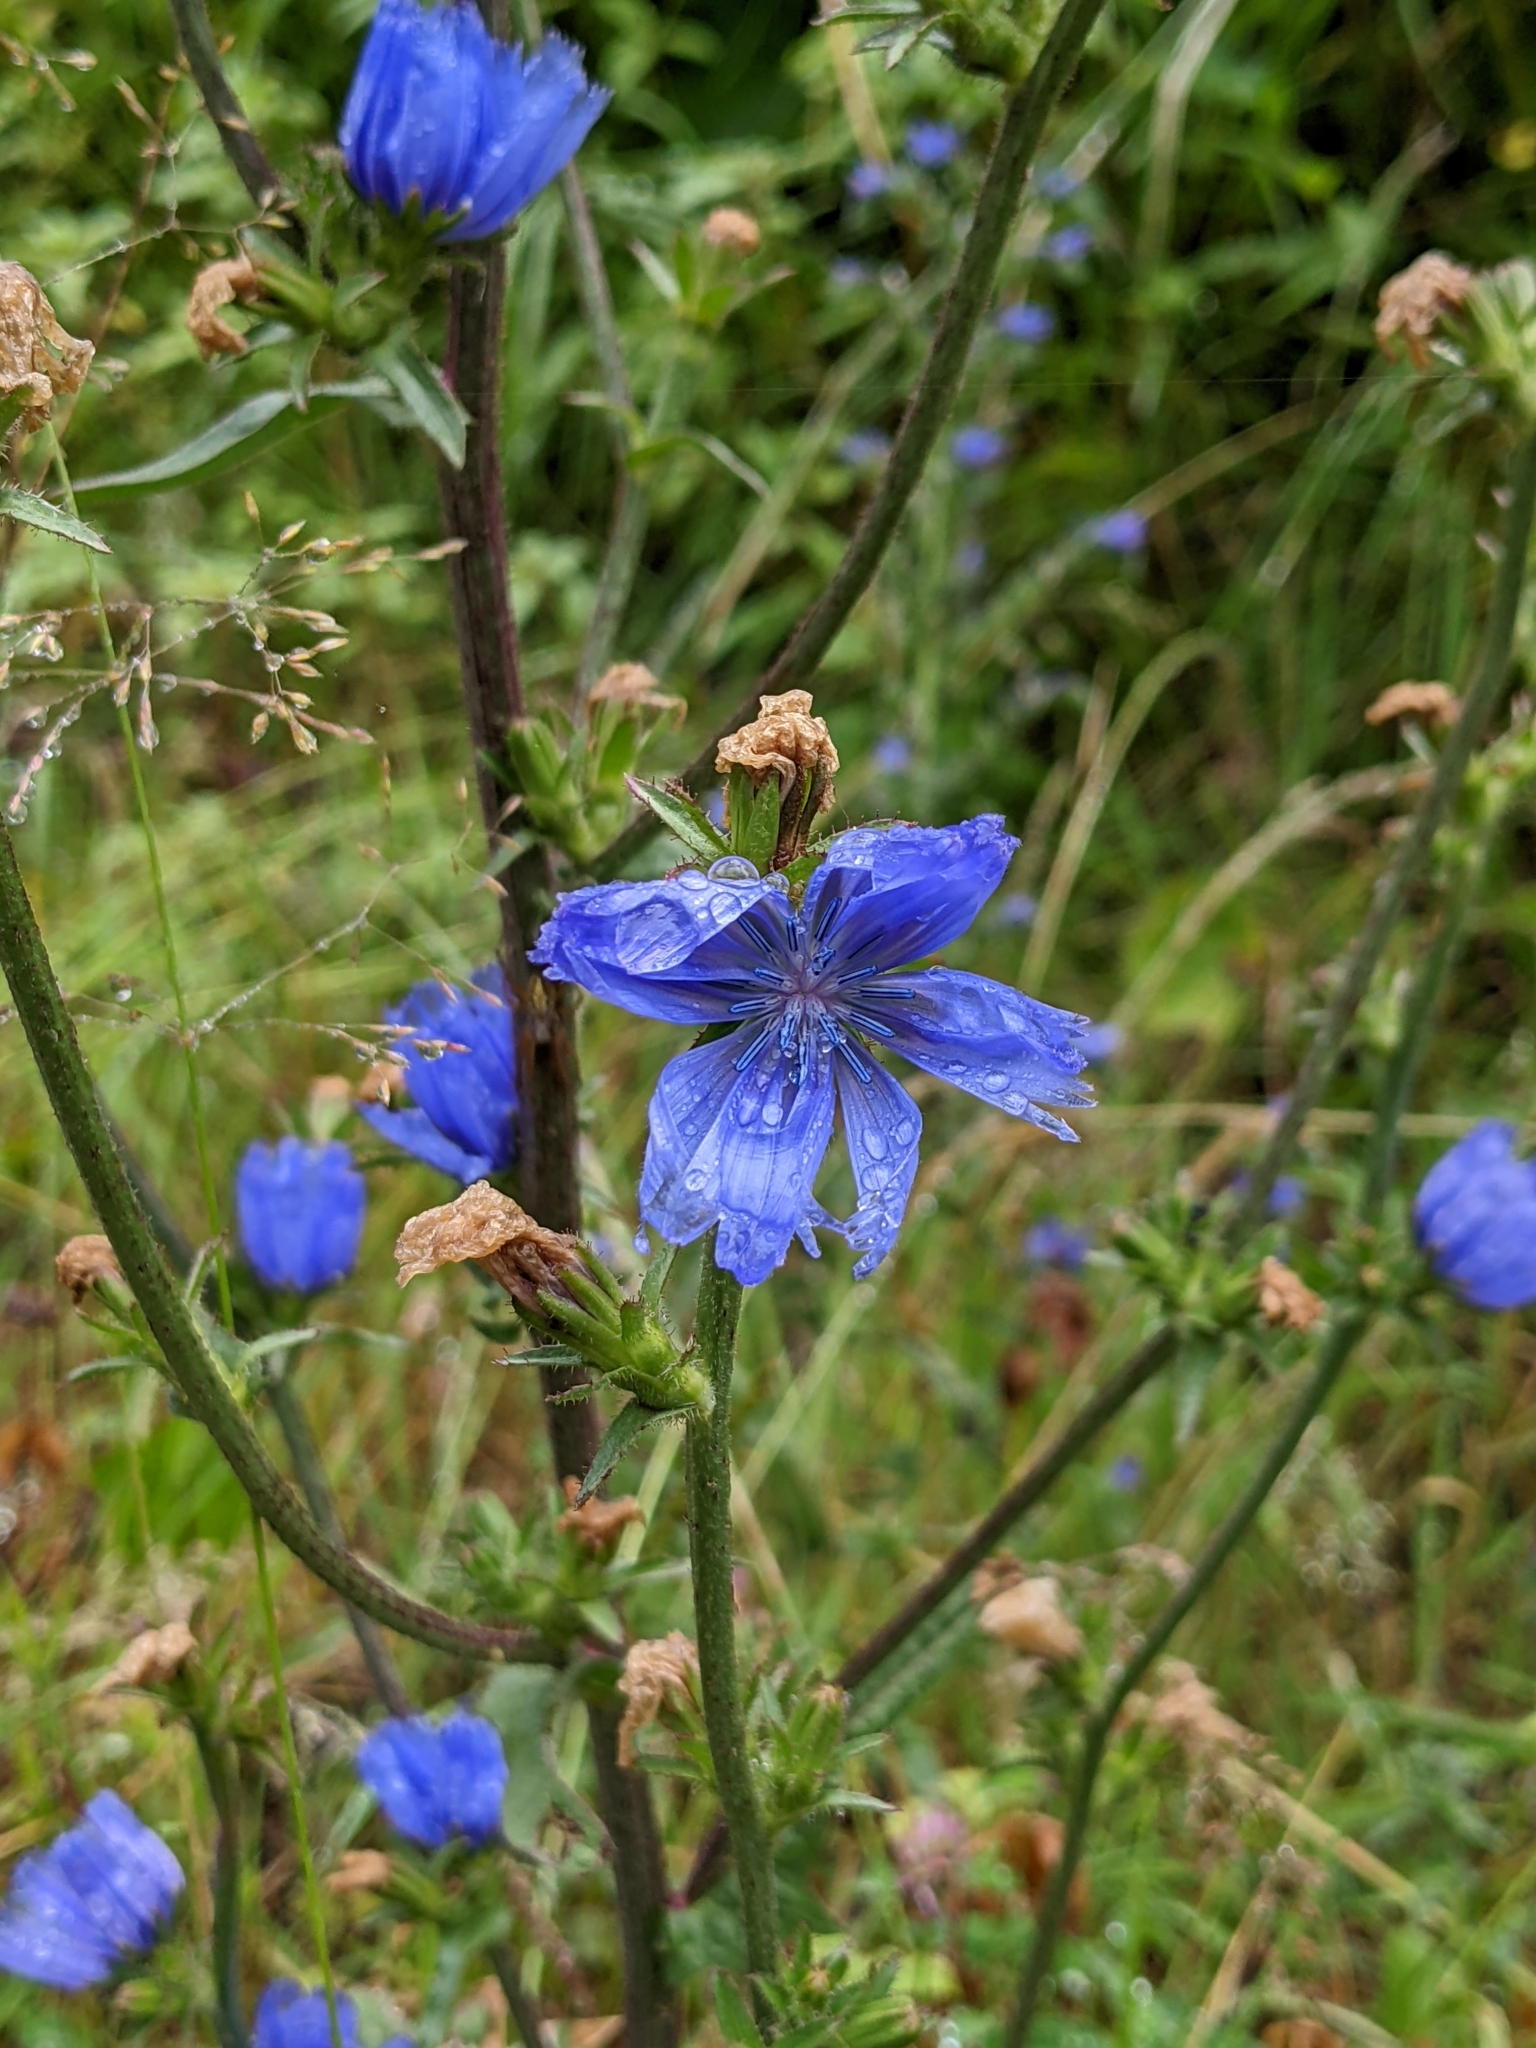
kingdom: Plantae
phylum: Tracheophyta
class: Magnoliopsida
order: Asterales
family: Asteraceae
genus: Cichorium
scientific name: Cichorium intybus
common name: Chicory
